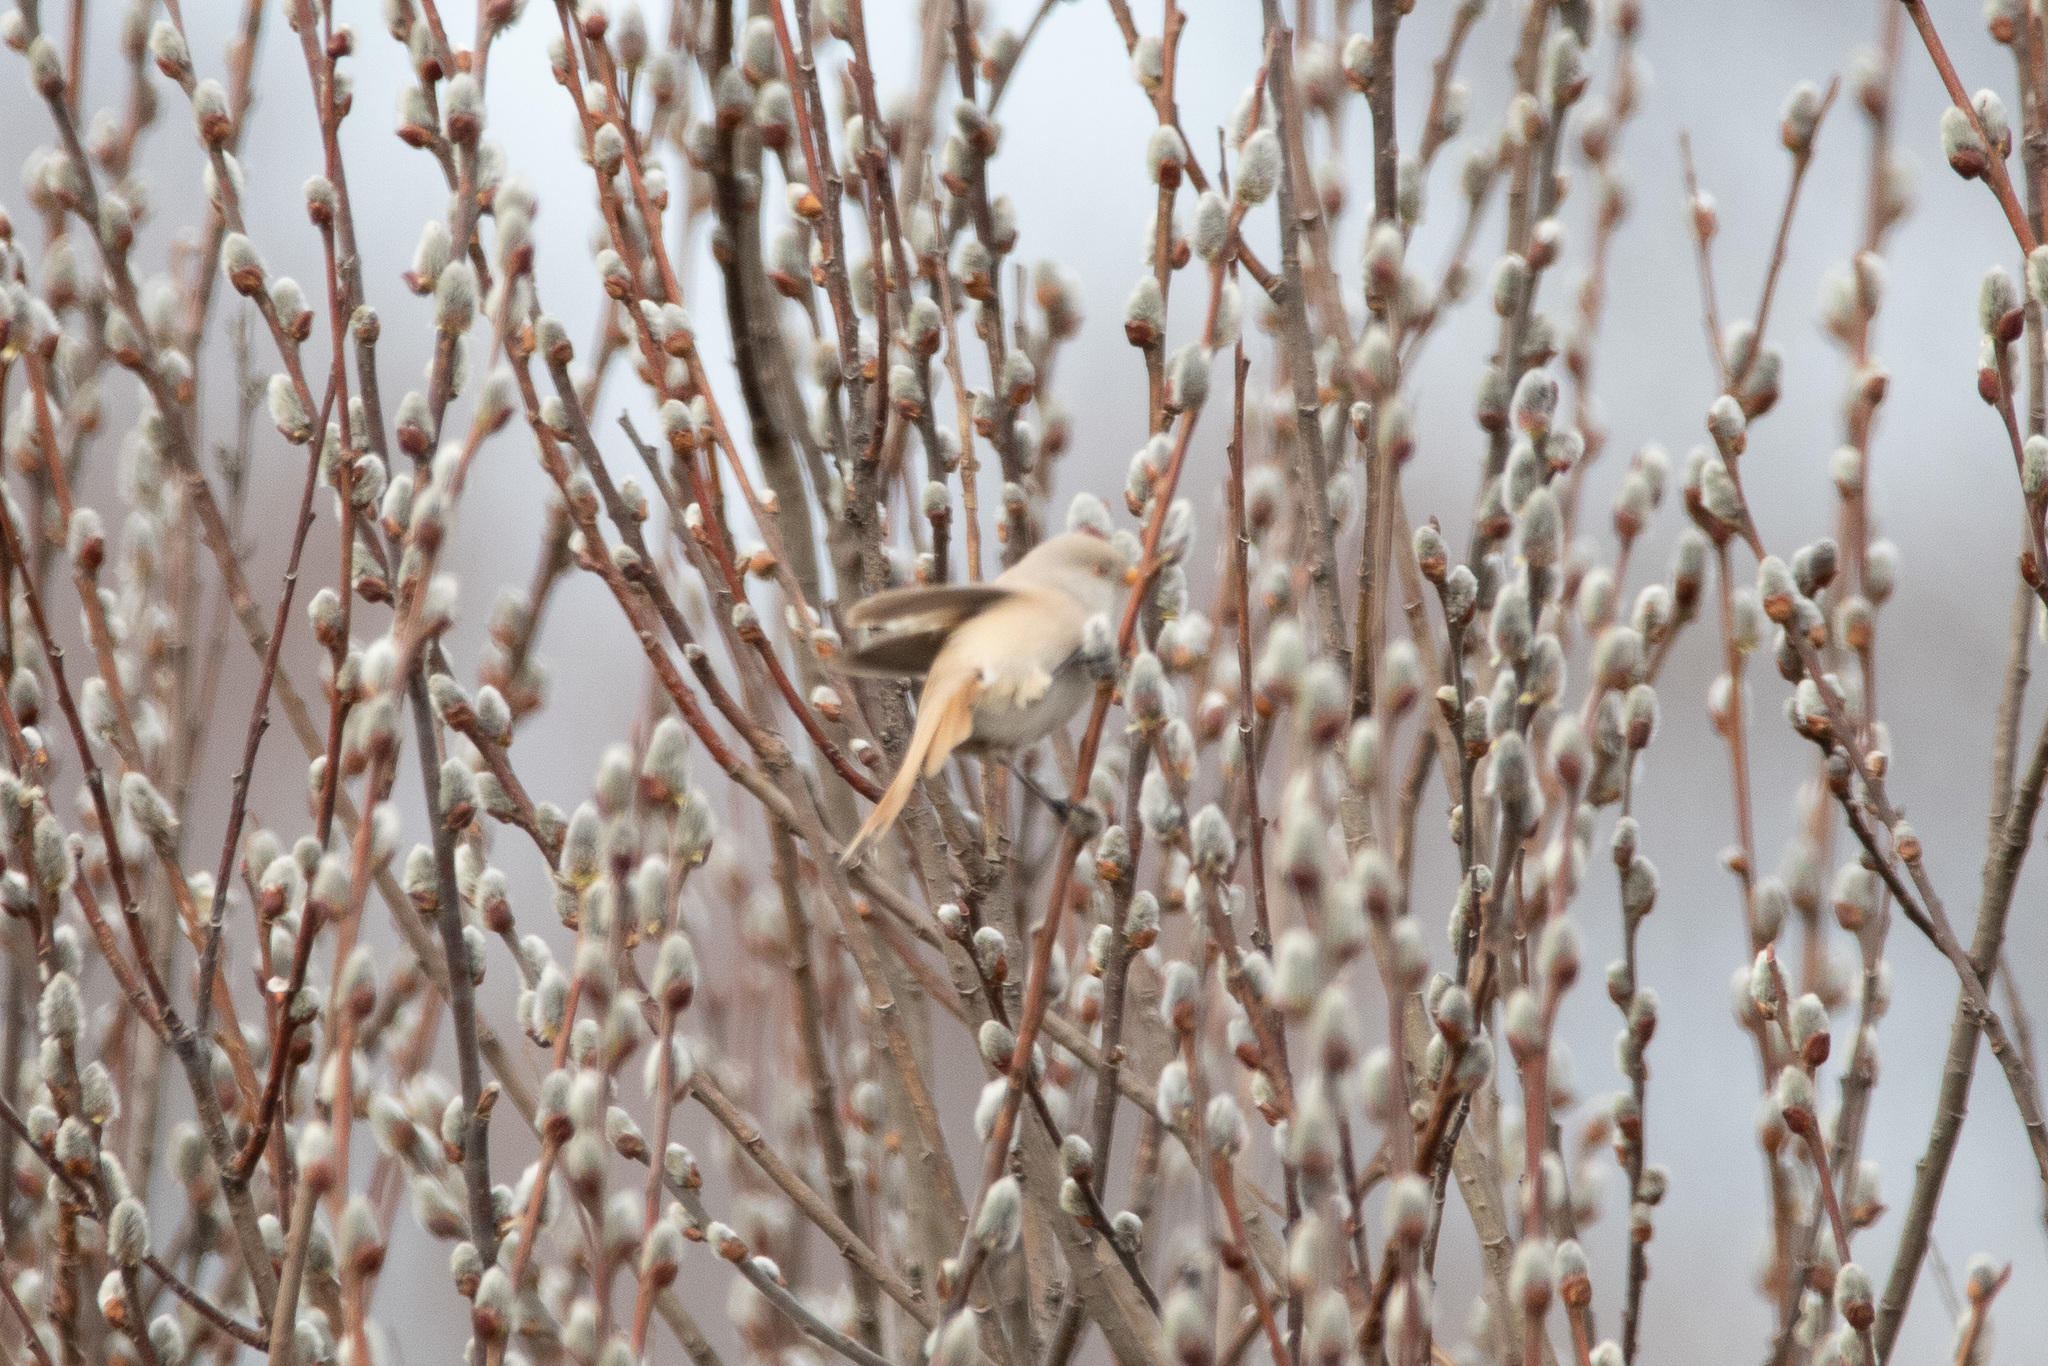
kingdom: Animalia
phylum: Chordata
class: Aves
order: Passeriformes
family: Panuridae
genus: Panurus
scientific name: Panurus biarmicus
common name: Bearded reedling
